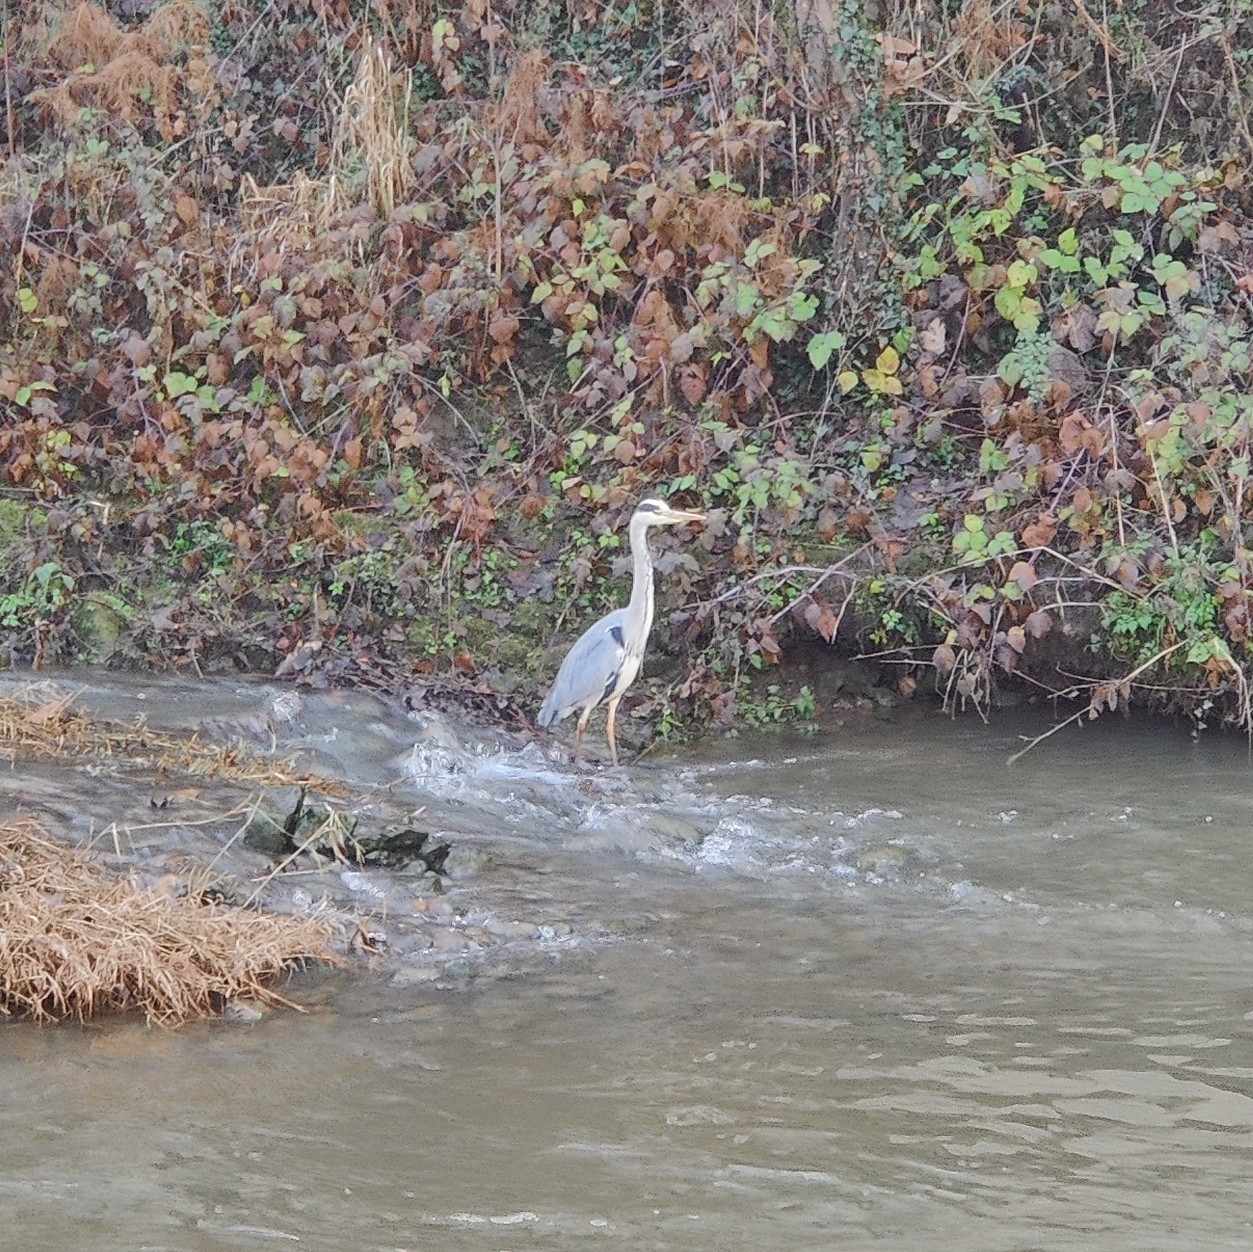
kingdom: Animalia
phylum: Chordata
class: Aves
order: Pelecaniformes
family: Ardeidae
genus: Ardea
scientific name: Ardea cinerea
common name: Grey heron
